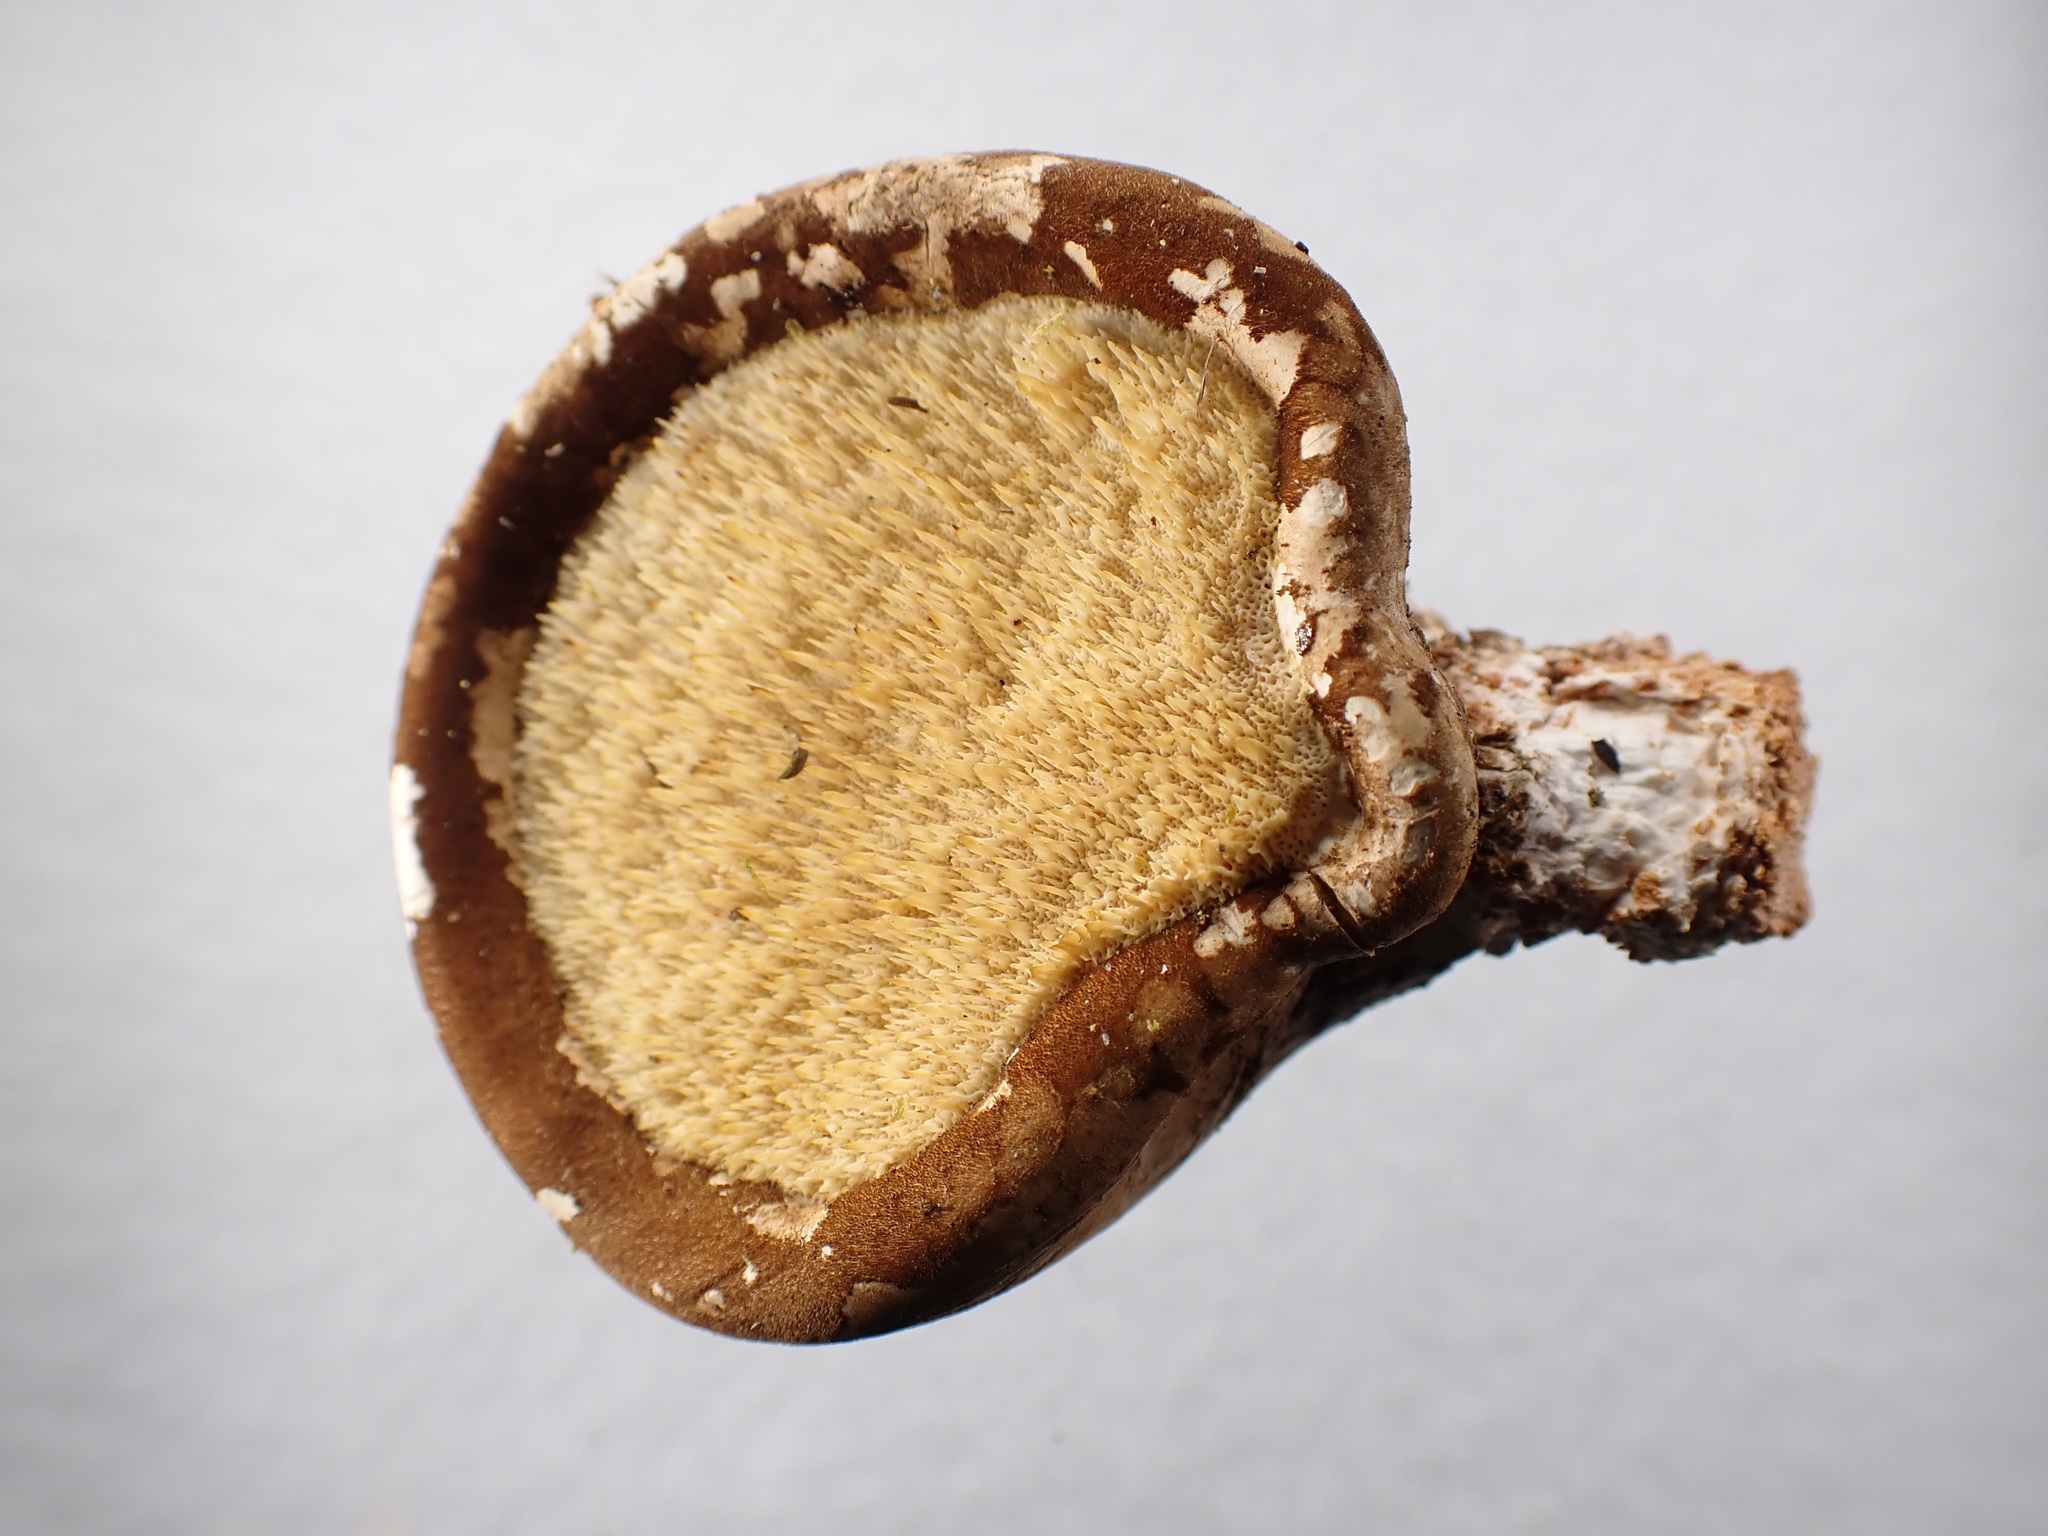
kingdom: Fungi
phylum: Basidiomycota
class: Agaricomycetes
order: Polyporales
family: Fomitopsidaceae
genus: Fomitopsis
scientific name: Fomitopsis betulina
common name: Birch polypore
